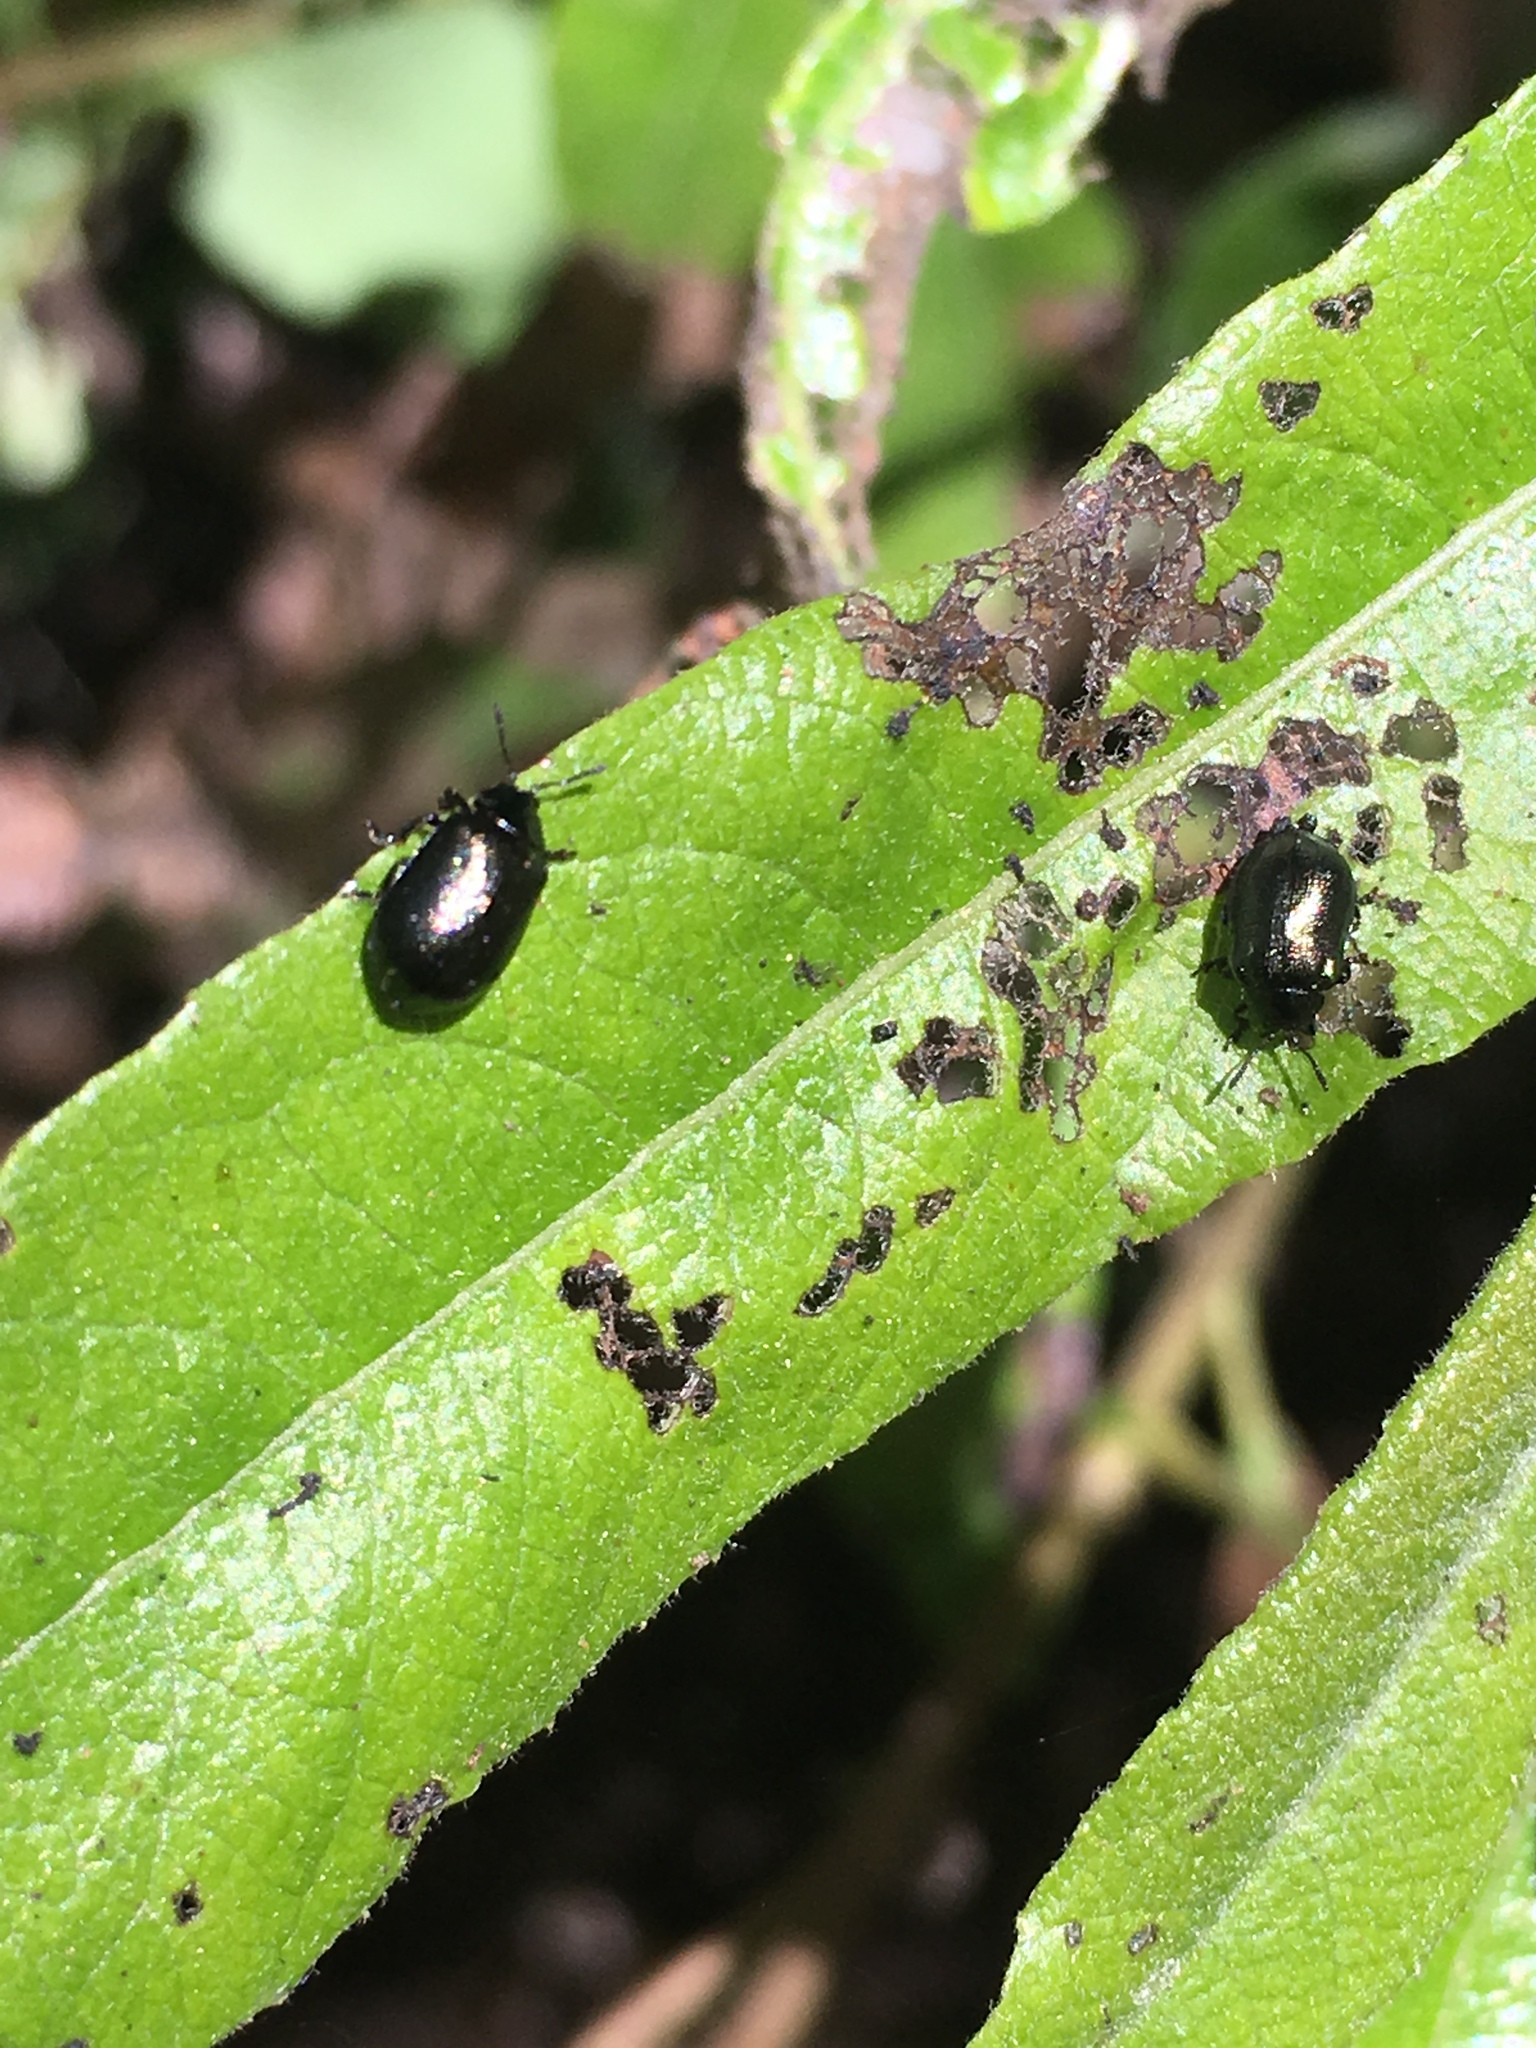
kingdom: Animalia
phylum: Arthropoda
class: Insecta
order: Coleoptera
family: Chrysomelidae
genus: Plagiodera
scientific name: Plagiodera californica
